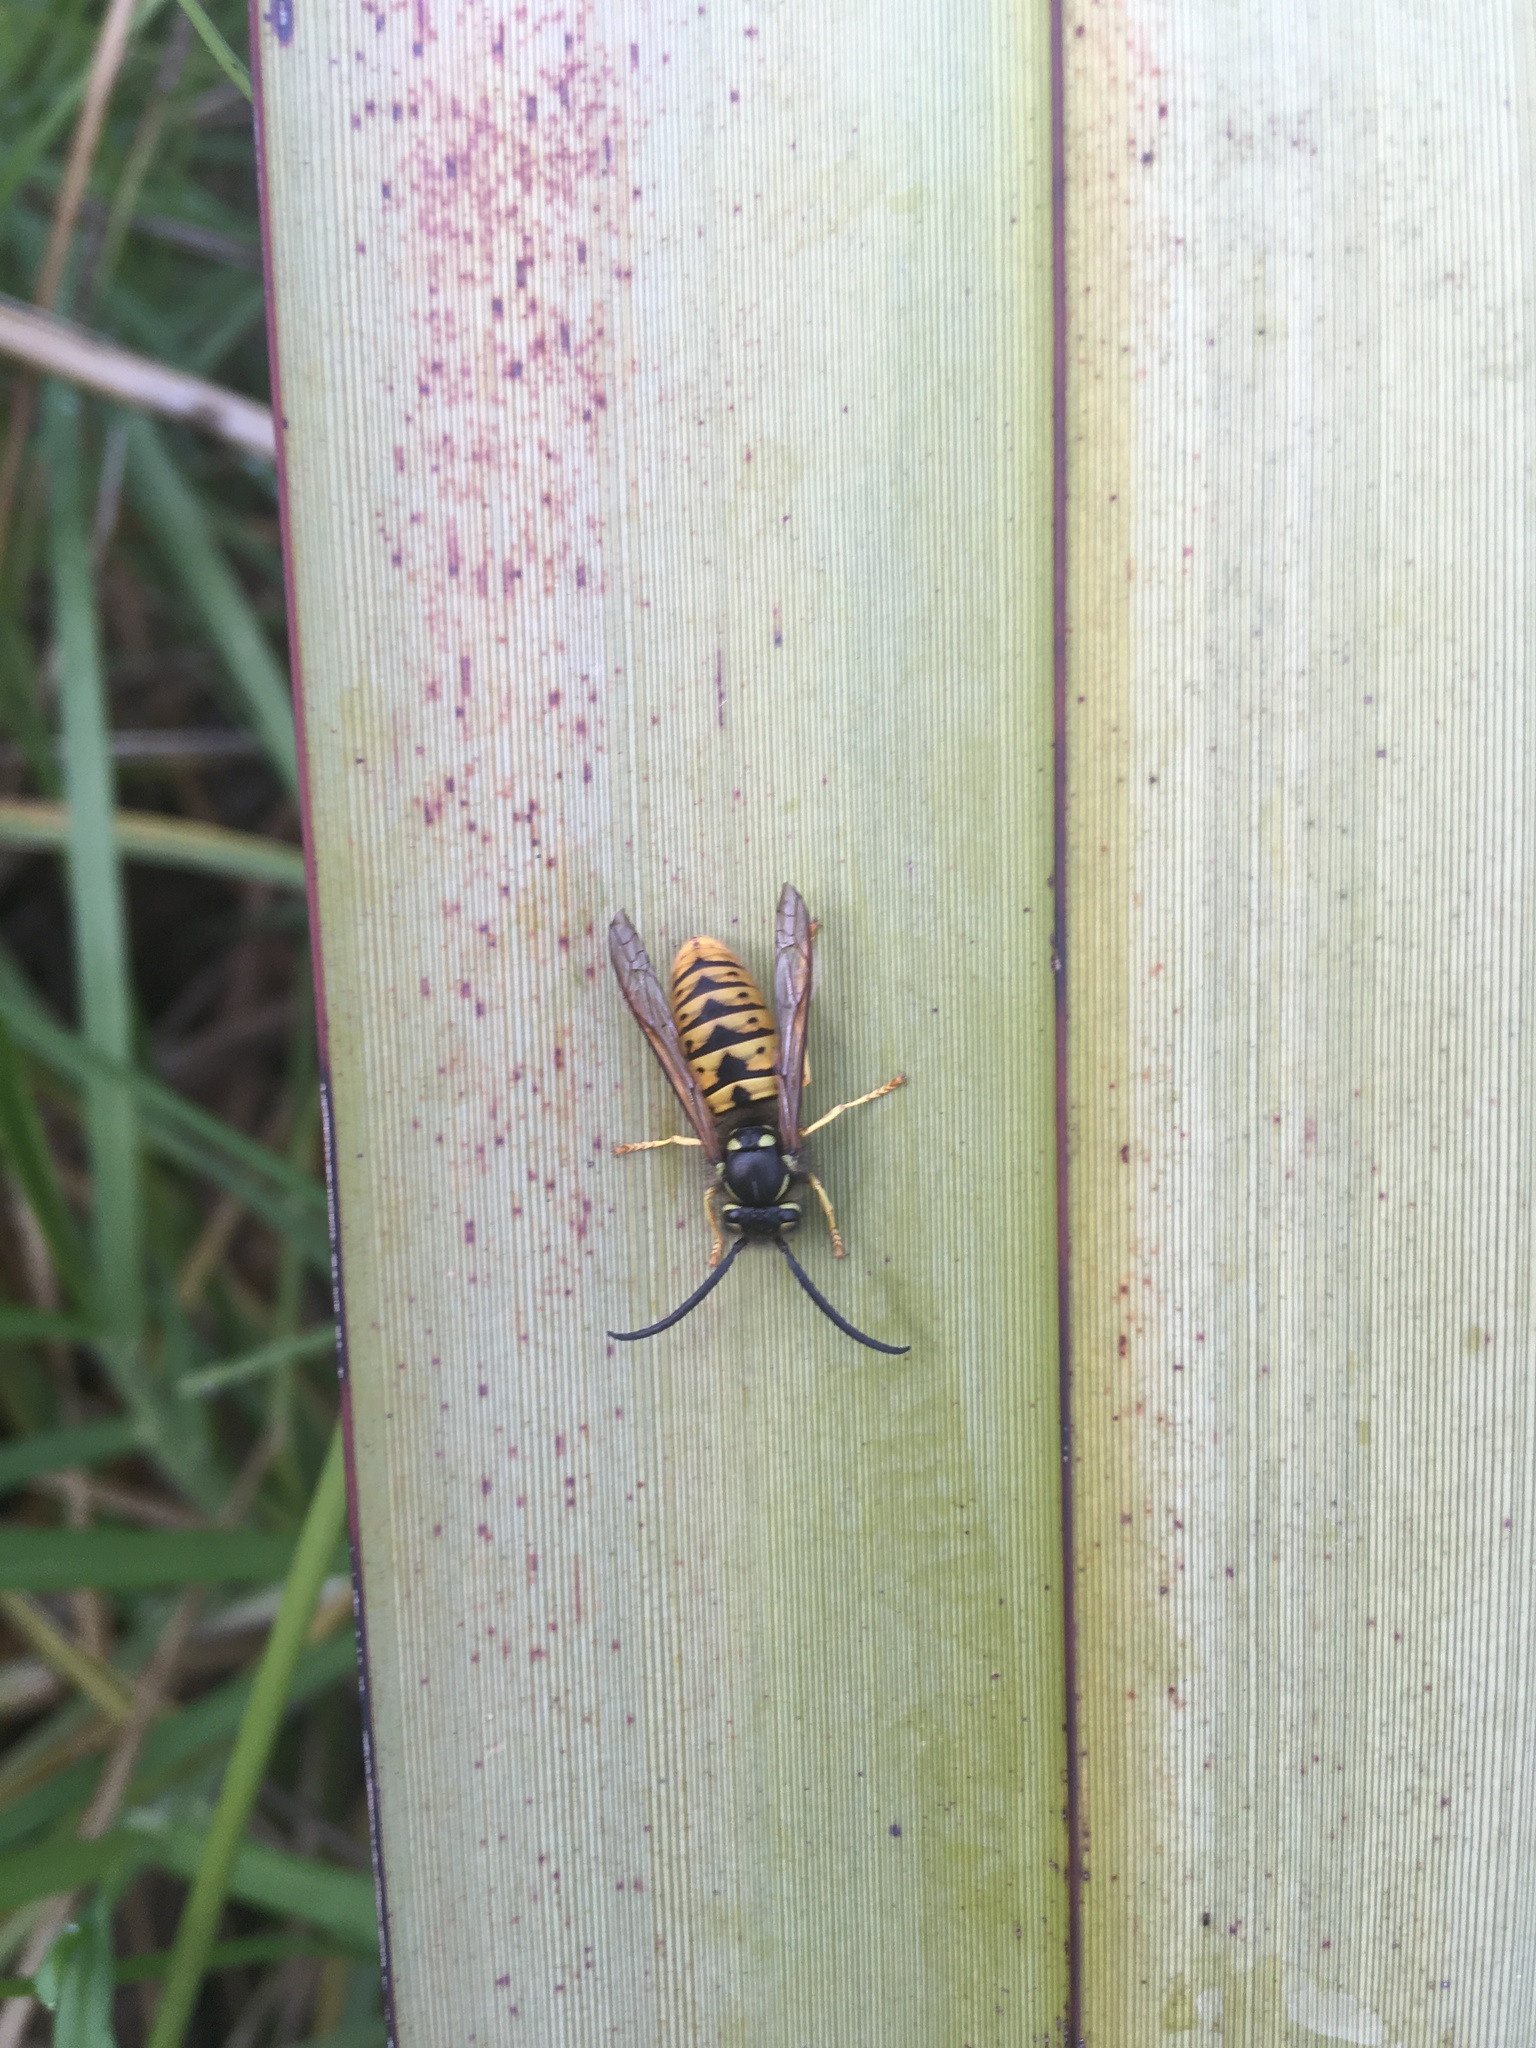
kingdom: Animalia
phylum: Arthropoda
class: Insecta
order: Hymenoptera
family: Vespidae
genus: Vespula
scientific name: Vespula
